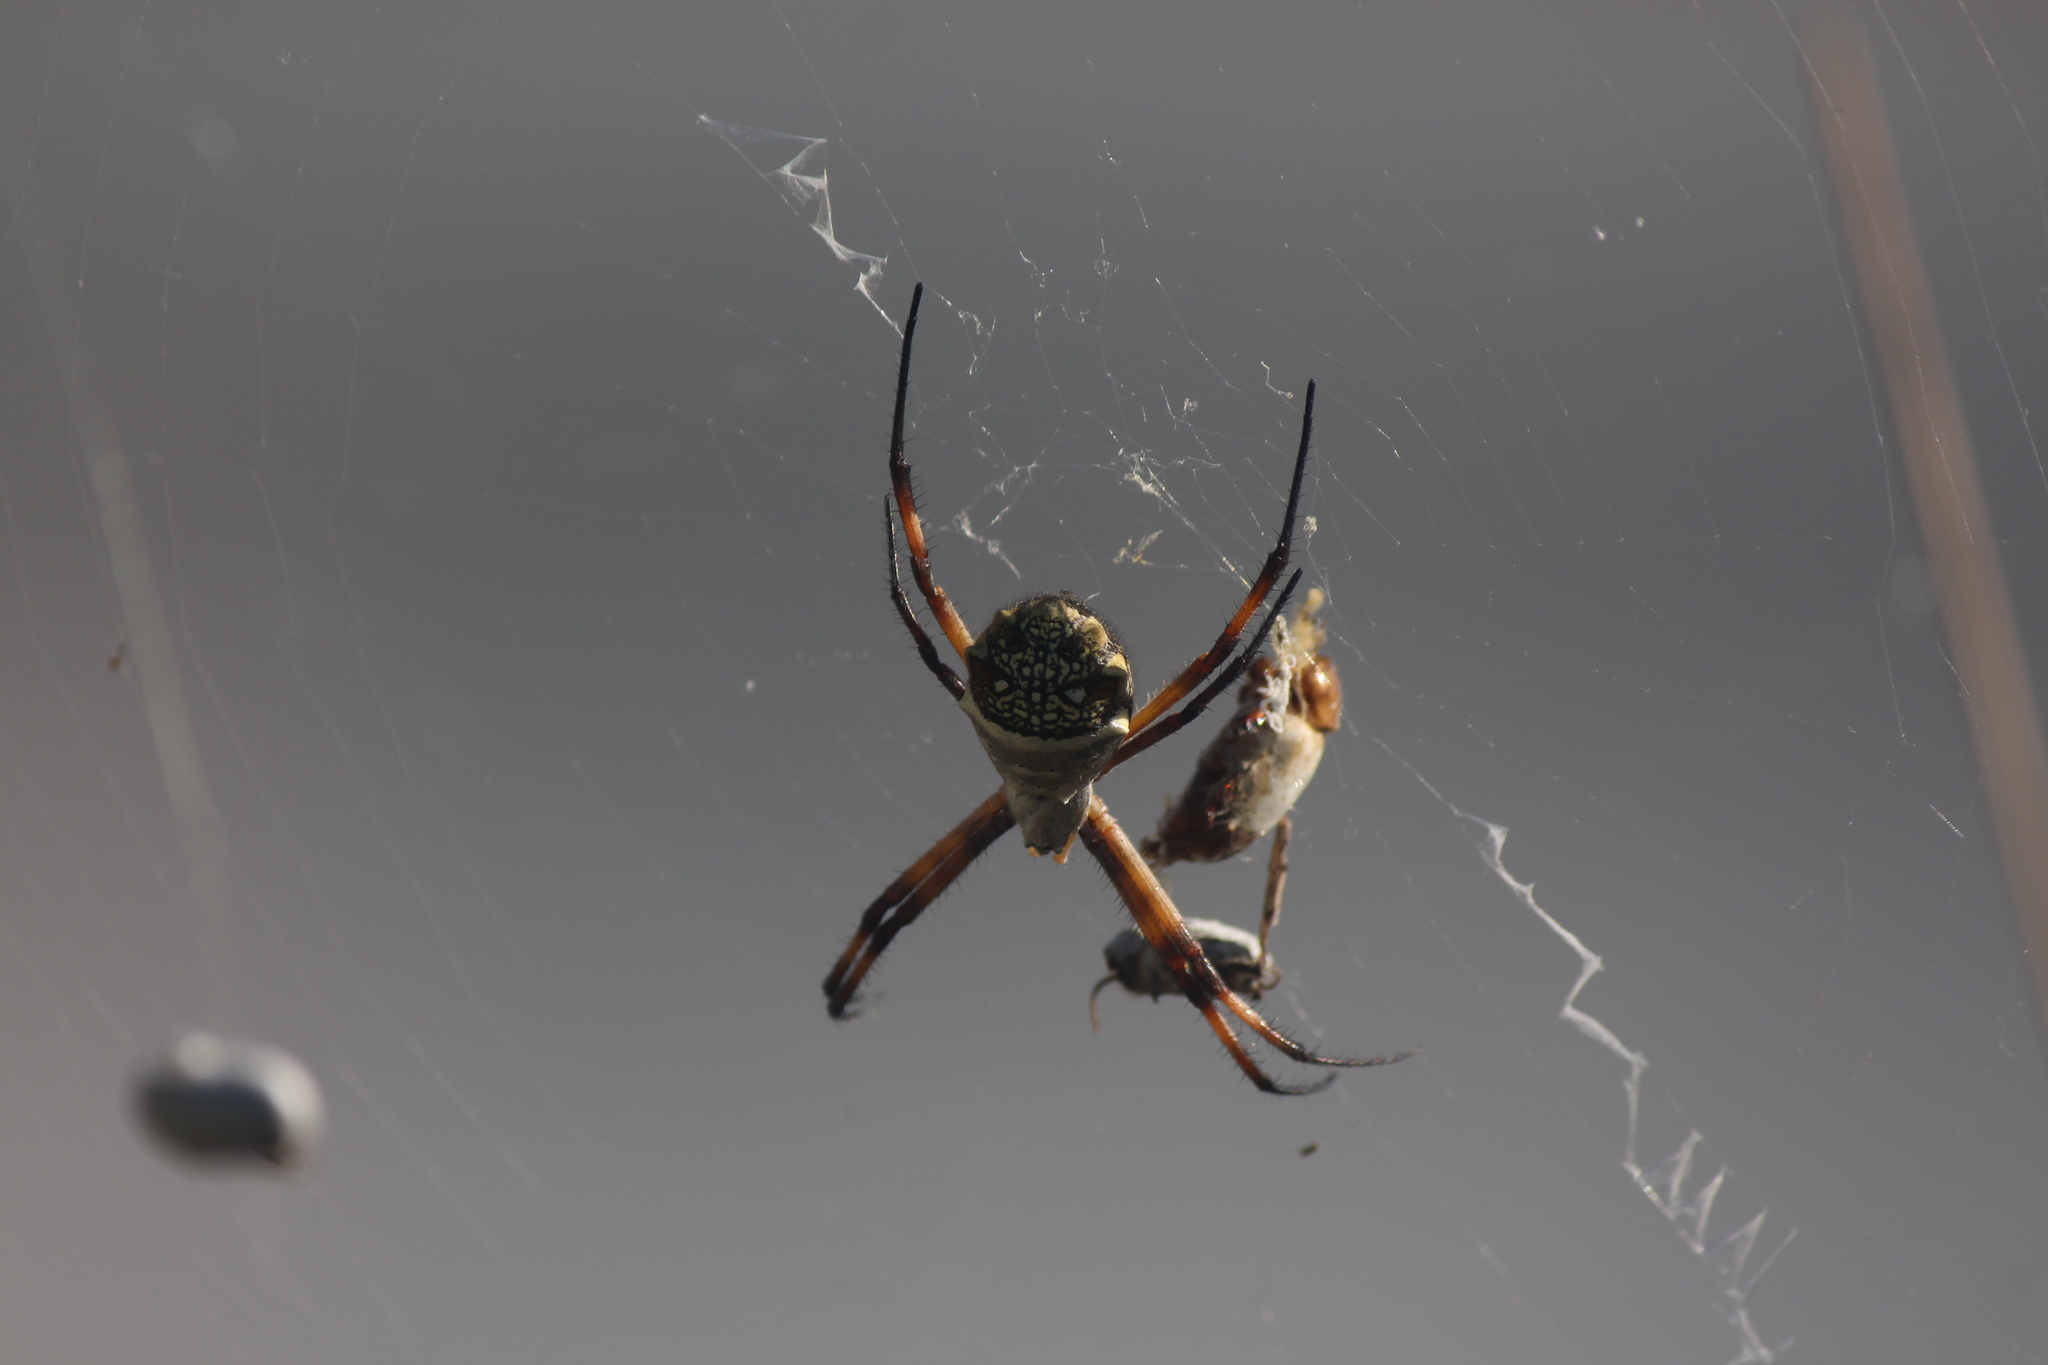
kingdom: Animalia
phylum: Arthropoda
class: Arachnida
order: Araneae
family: Araneidae
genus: Argiope
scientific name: Argiope argentata
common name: Orb weavers
